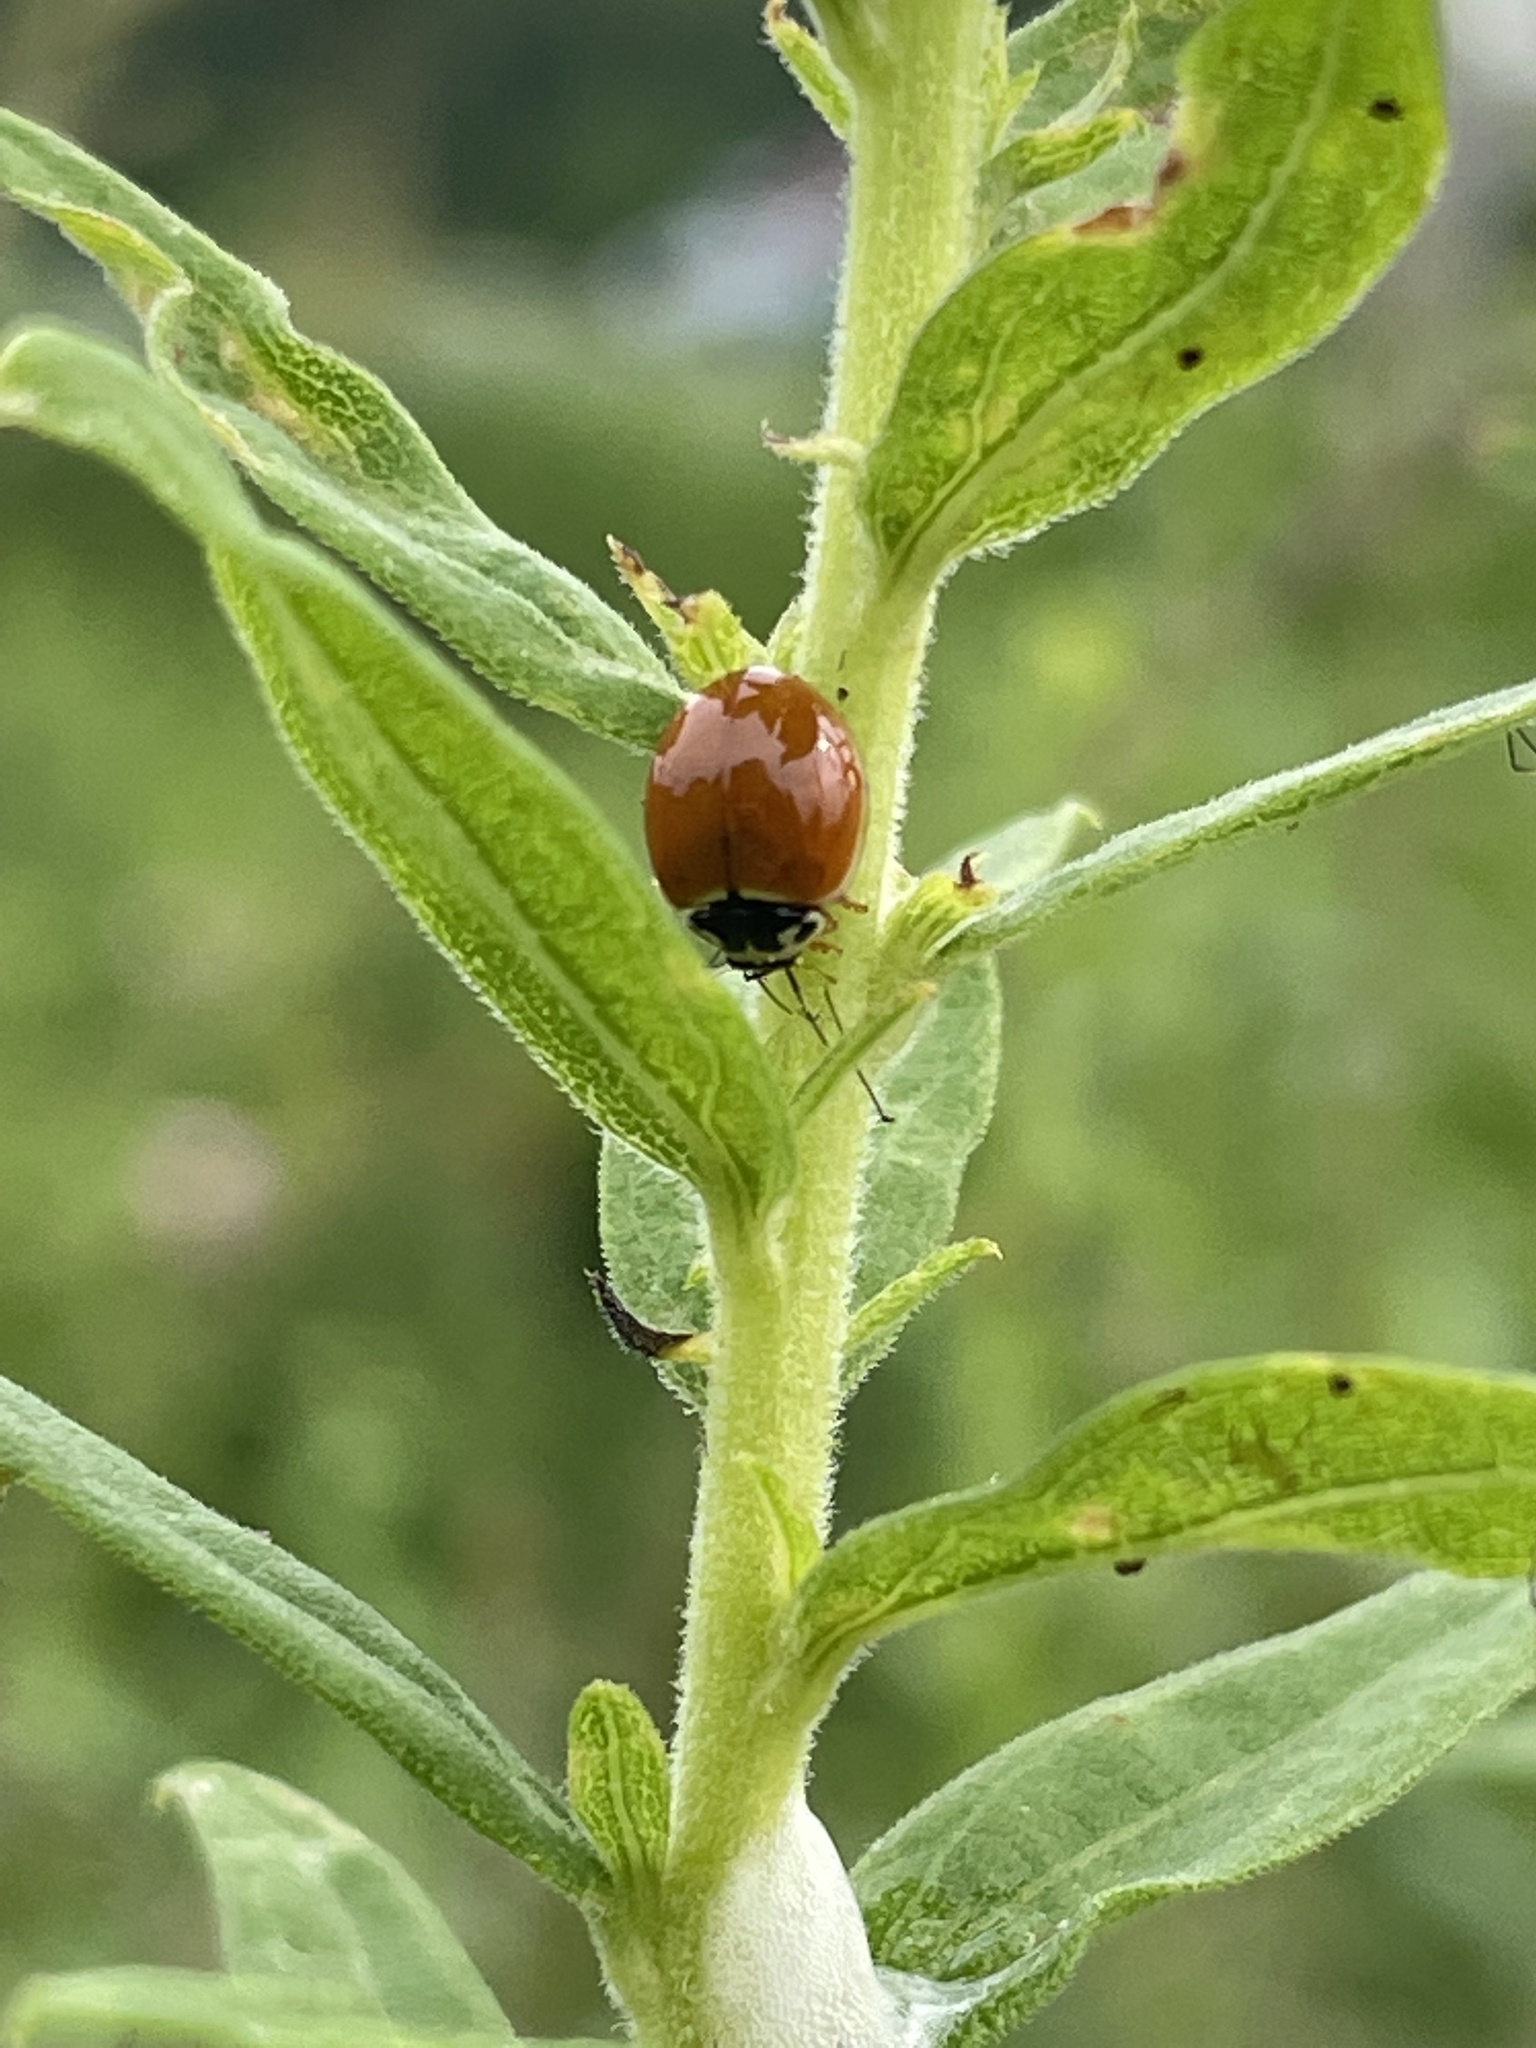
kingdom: Animalia
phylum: Arthropoda
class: Insecta
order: Coleoptera
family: Coccinellidae
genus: Cycloneda
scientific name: Cycloneda munda
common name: Polished lady beetle
